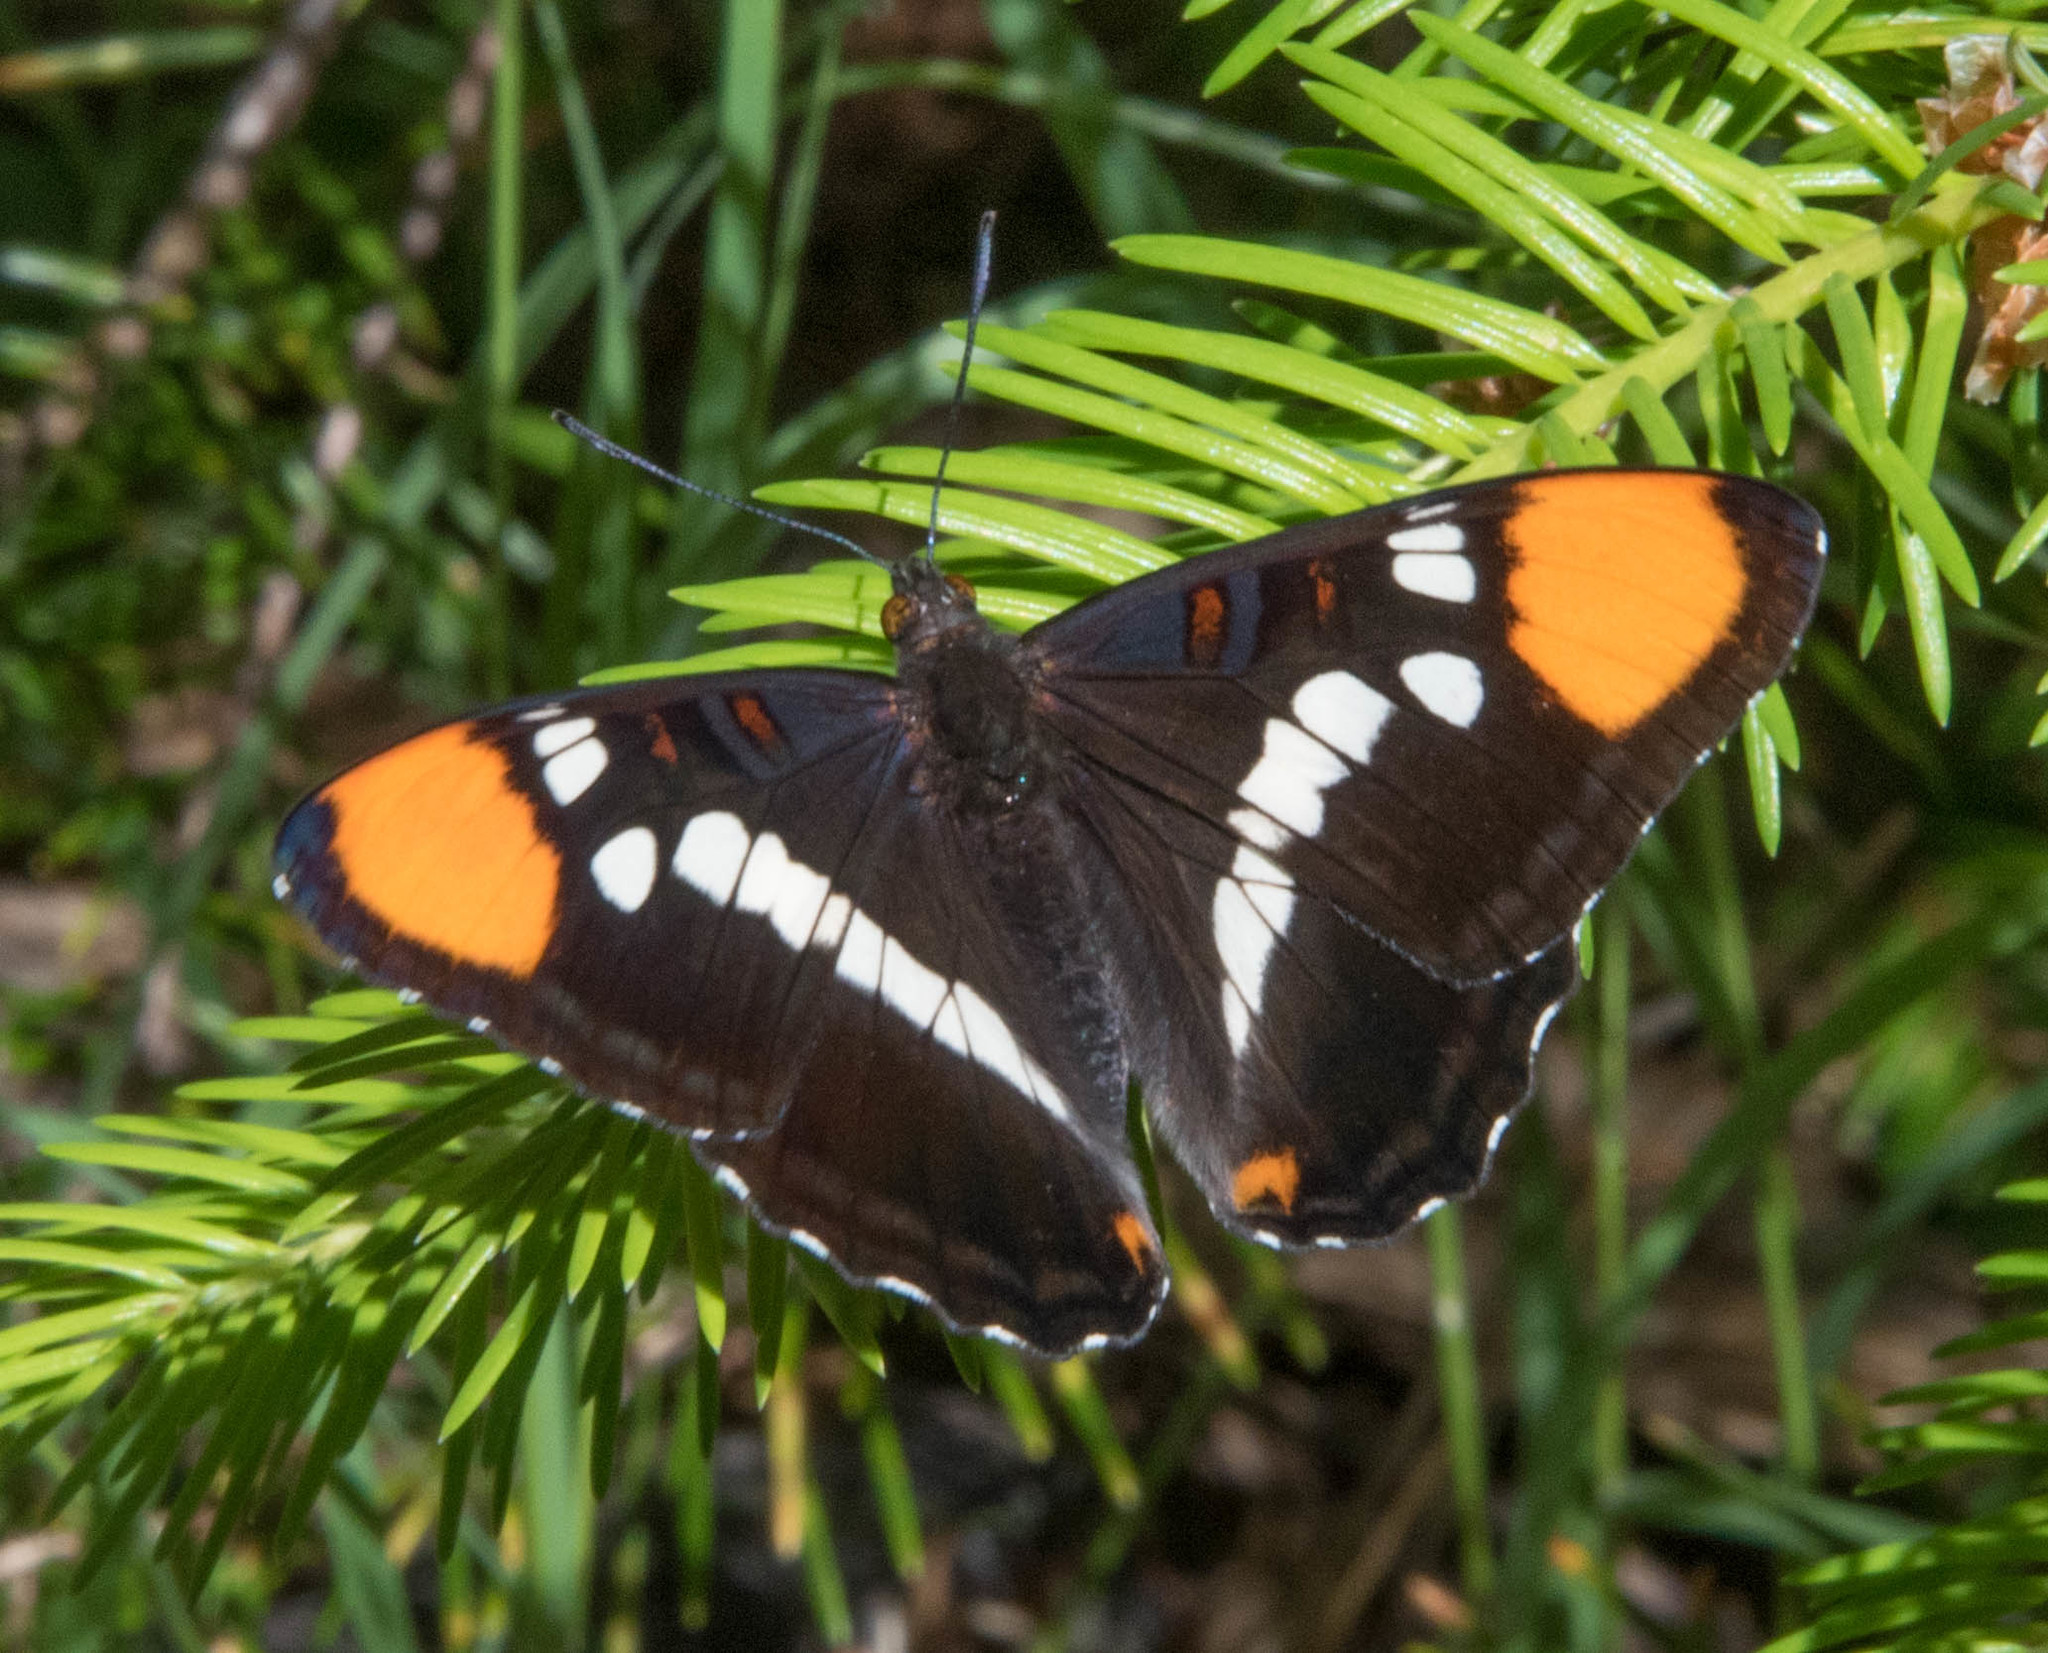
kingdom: Animalia
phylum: Arthropoda
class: Insecta
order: Lepidoptera
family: Nymphalidae
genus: Limenitis
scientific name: Limenitis bredowii
